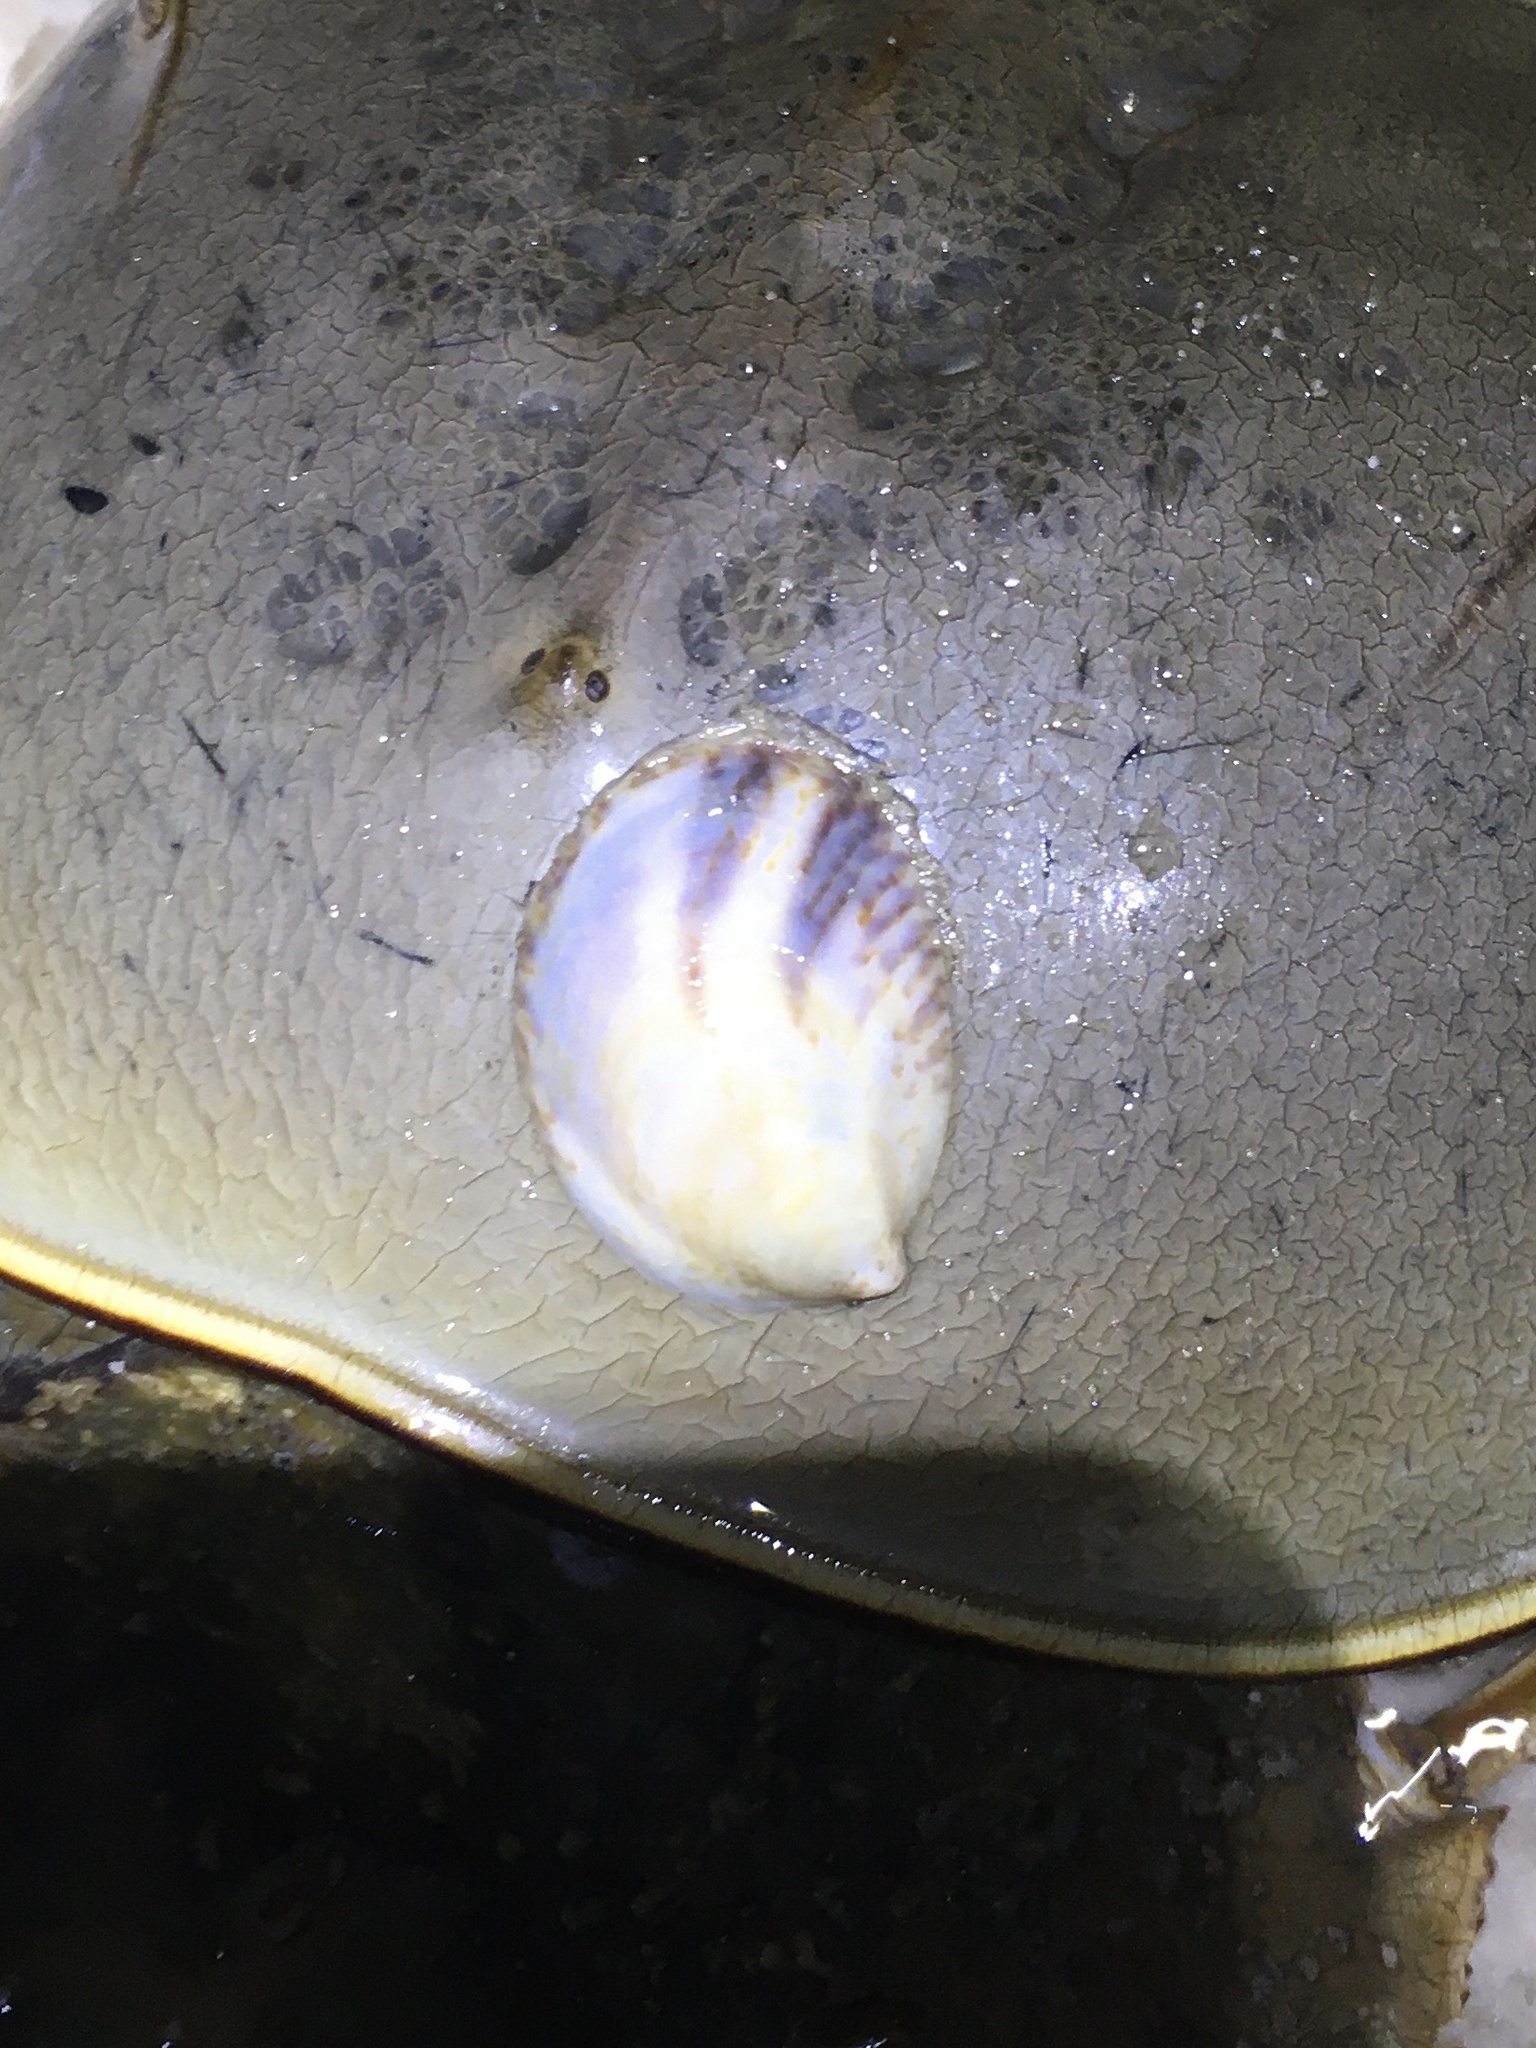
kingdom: Animalia
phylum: Mollusca
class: Gastropoda
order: Littorinimorpha
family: Calyptraeidae
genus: Crepidula
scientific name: Crepidula fornicata
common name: Slipper limpet
